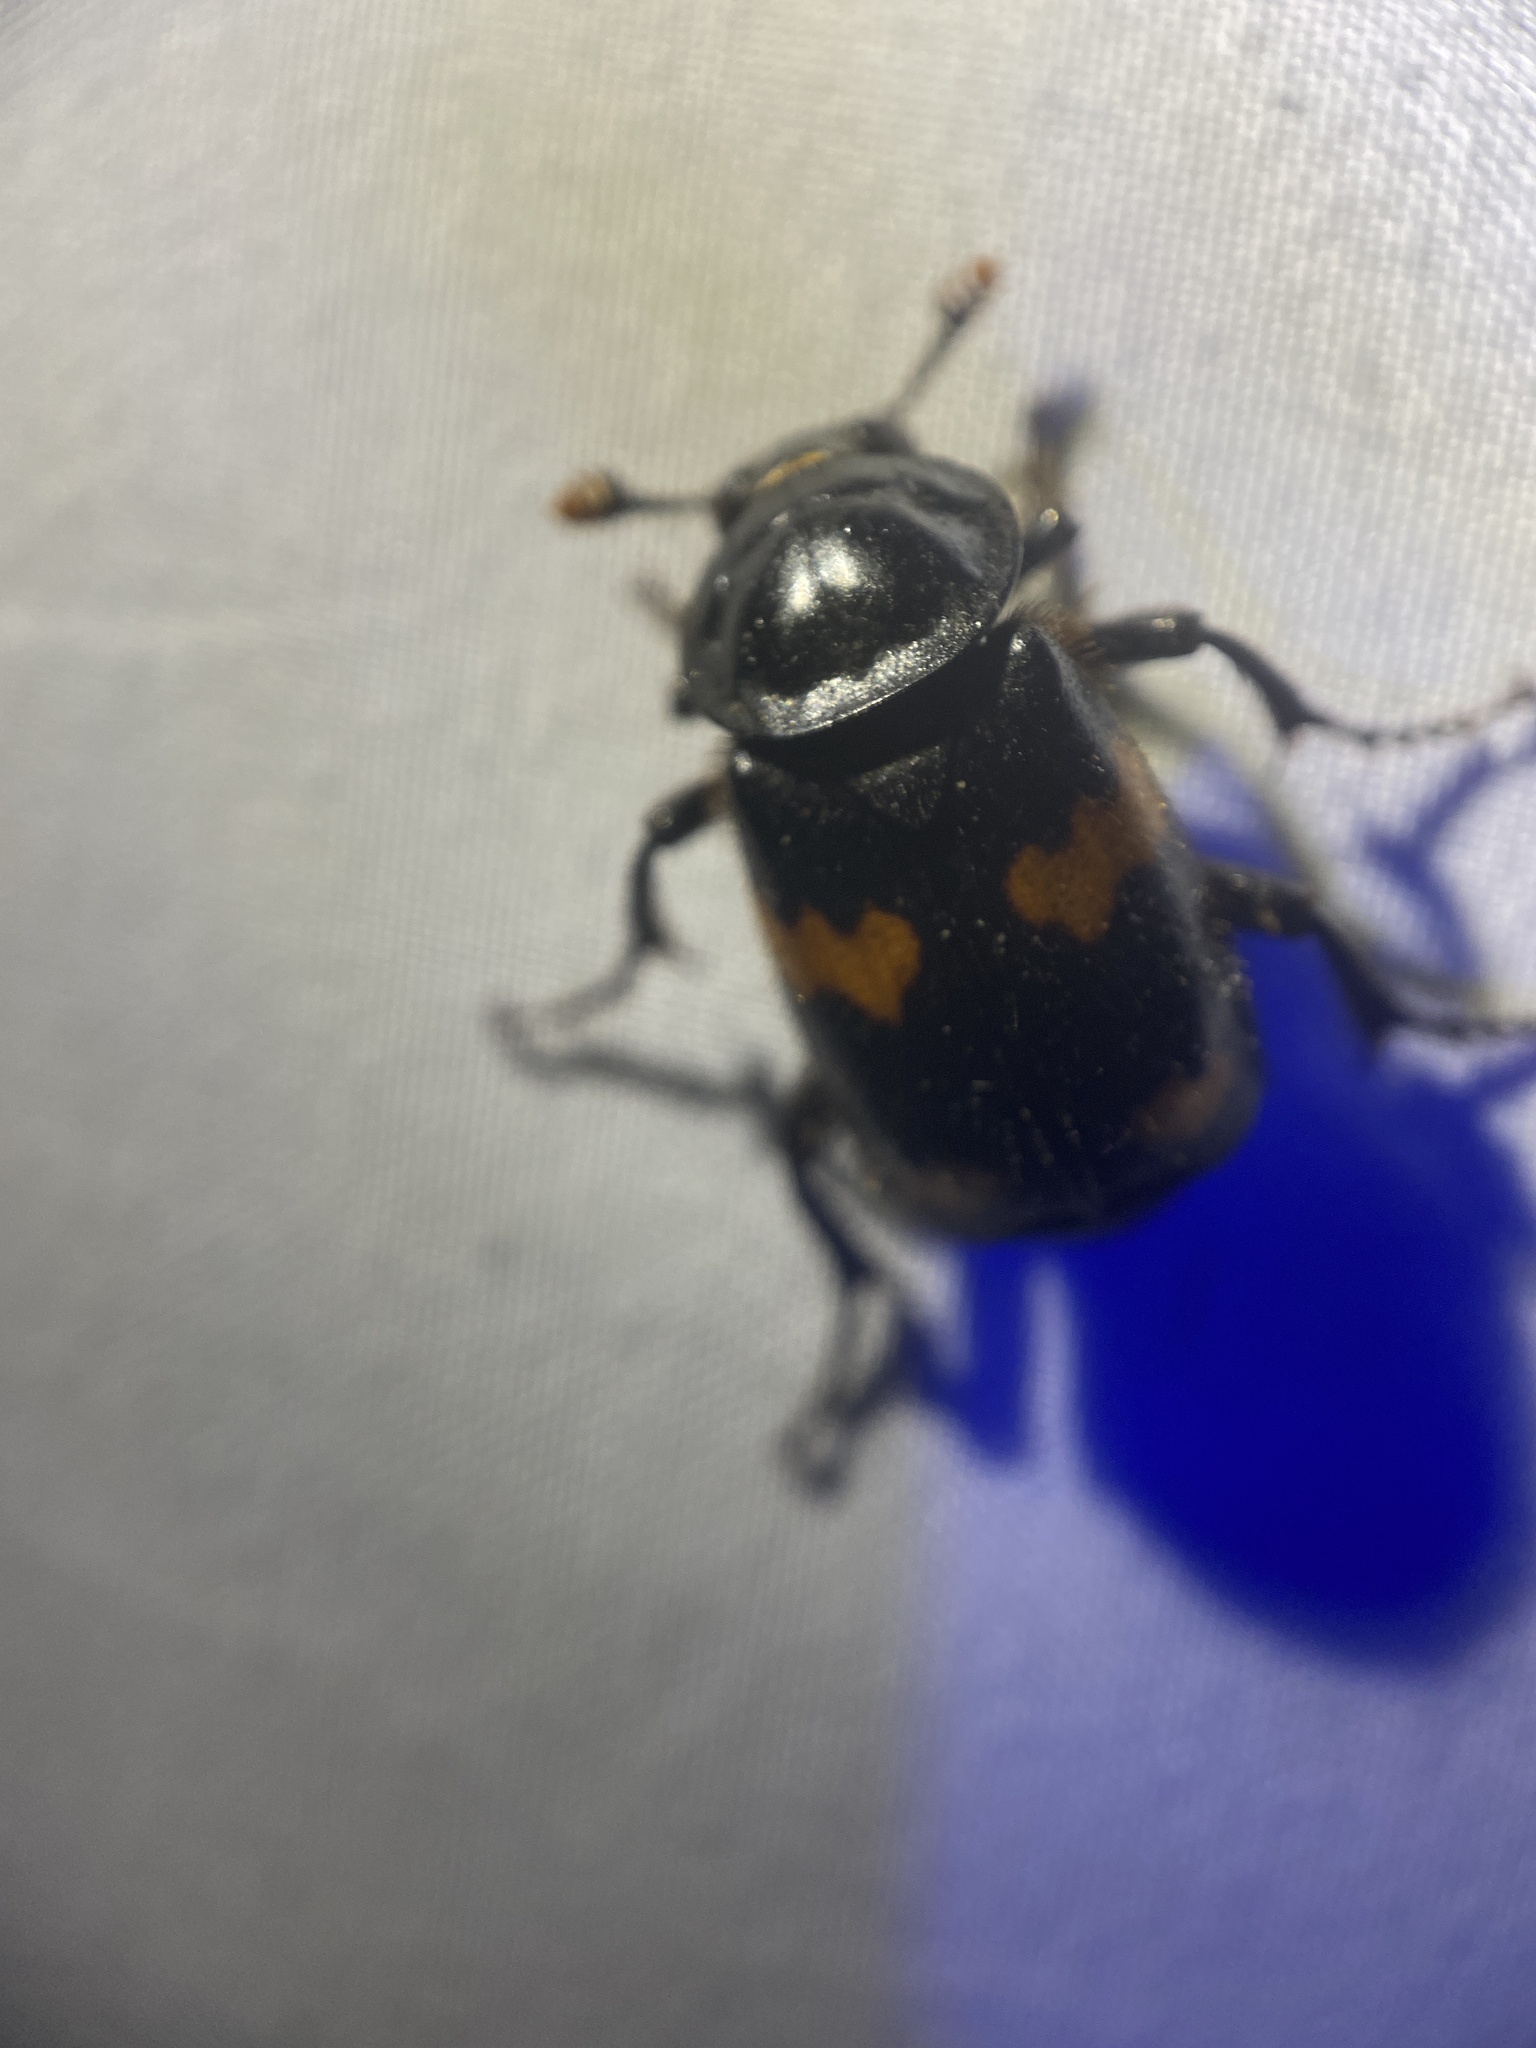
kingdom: Animalia
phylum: Arthropoda
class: Insecta
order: Coleoptera
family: Staphylinidae
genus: Nicrophorus
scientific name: Nicrophorus orbicollis
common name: Roundneck sexton beetle
